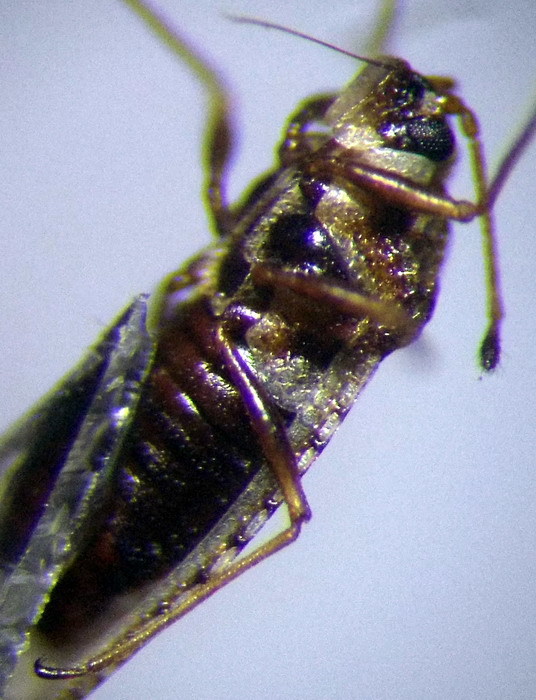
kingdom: Animalia
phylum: Arthropoda
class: Insecta
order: Hemiptera
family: Tingidae
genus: Dictyla
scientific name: Dictyla platyoma
